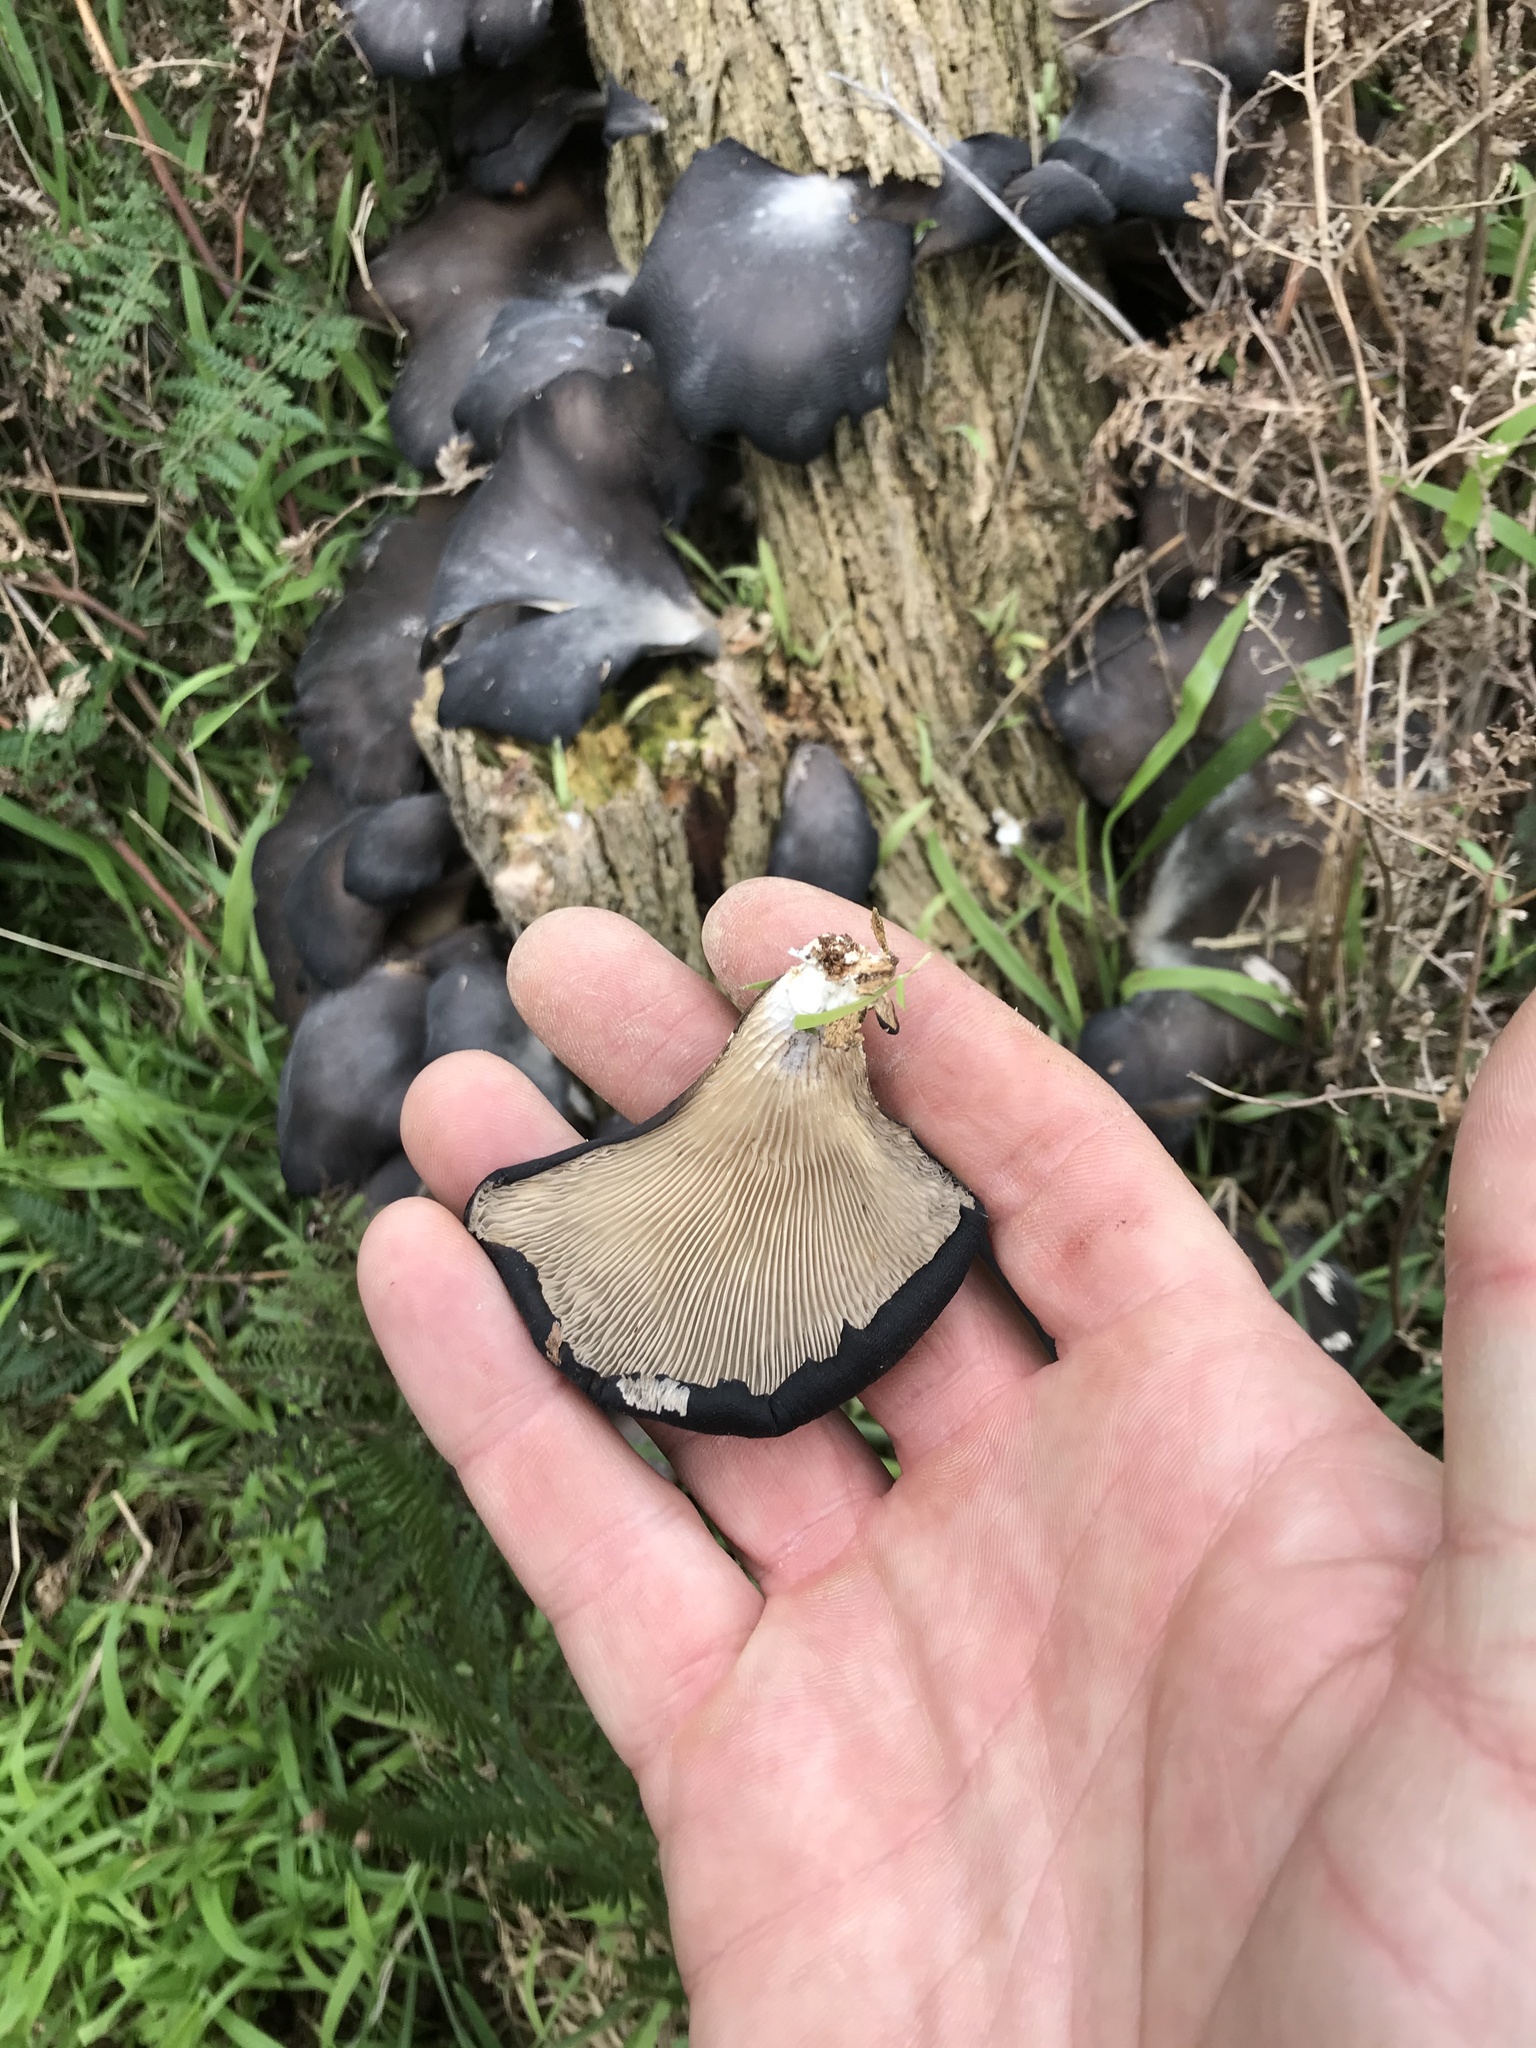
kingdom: Fungi
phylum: Basidiomycota
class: Agaricomycetes
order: Agaricales
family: Pleurotaceae
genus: Pleurotus
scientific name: Pleurotus purpureo-olivaceus
